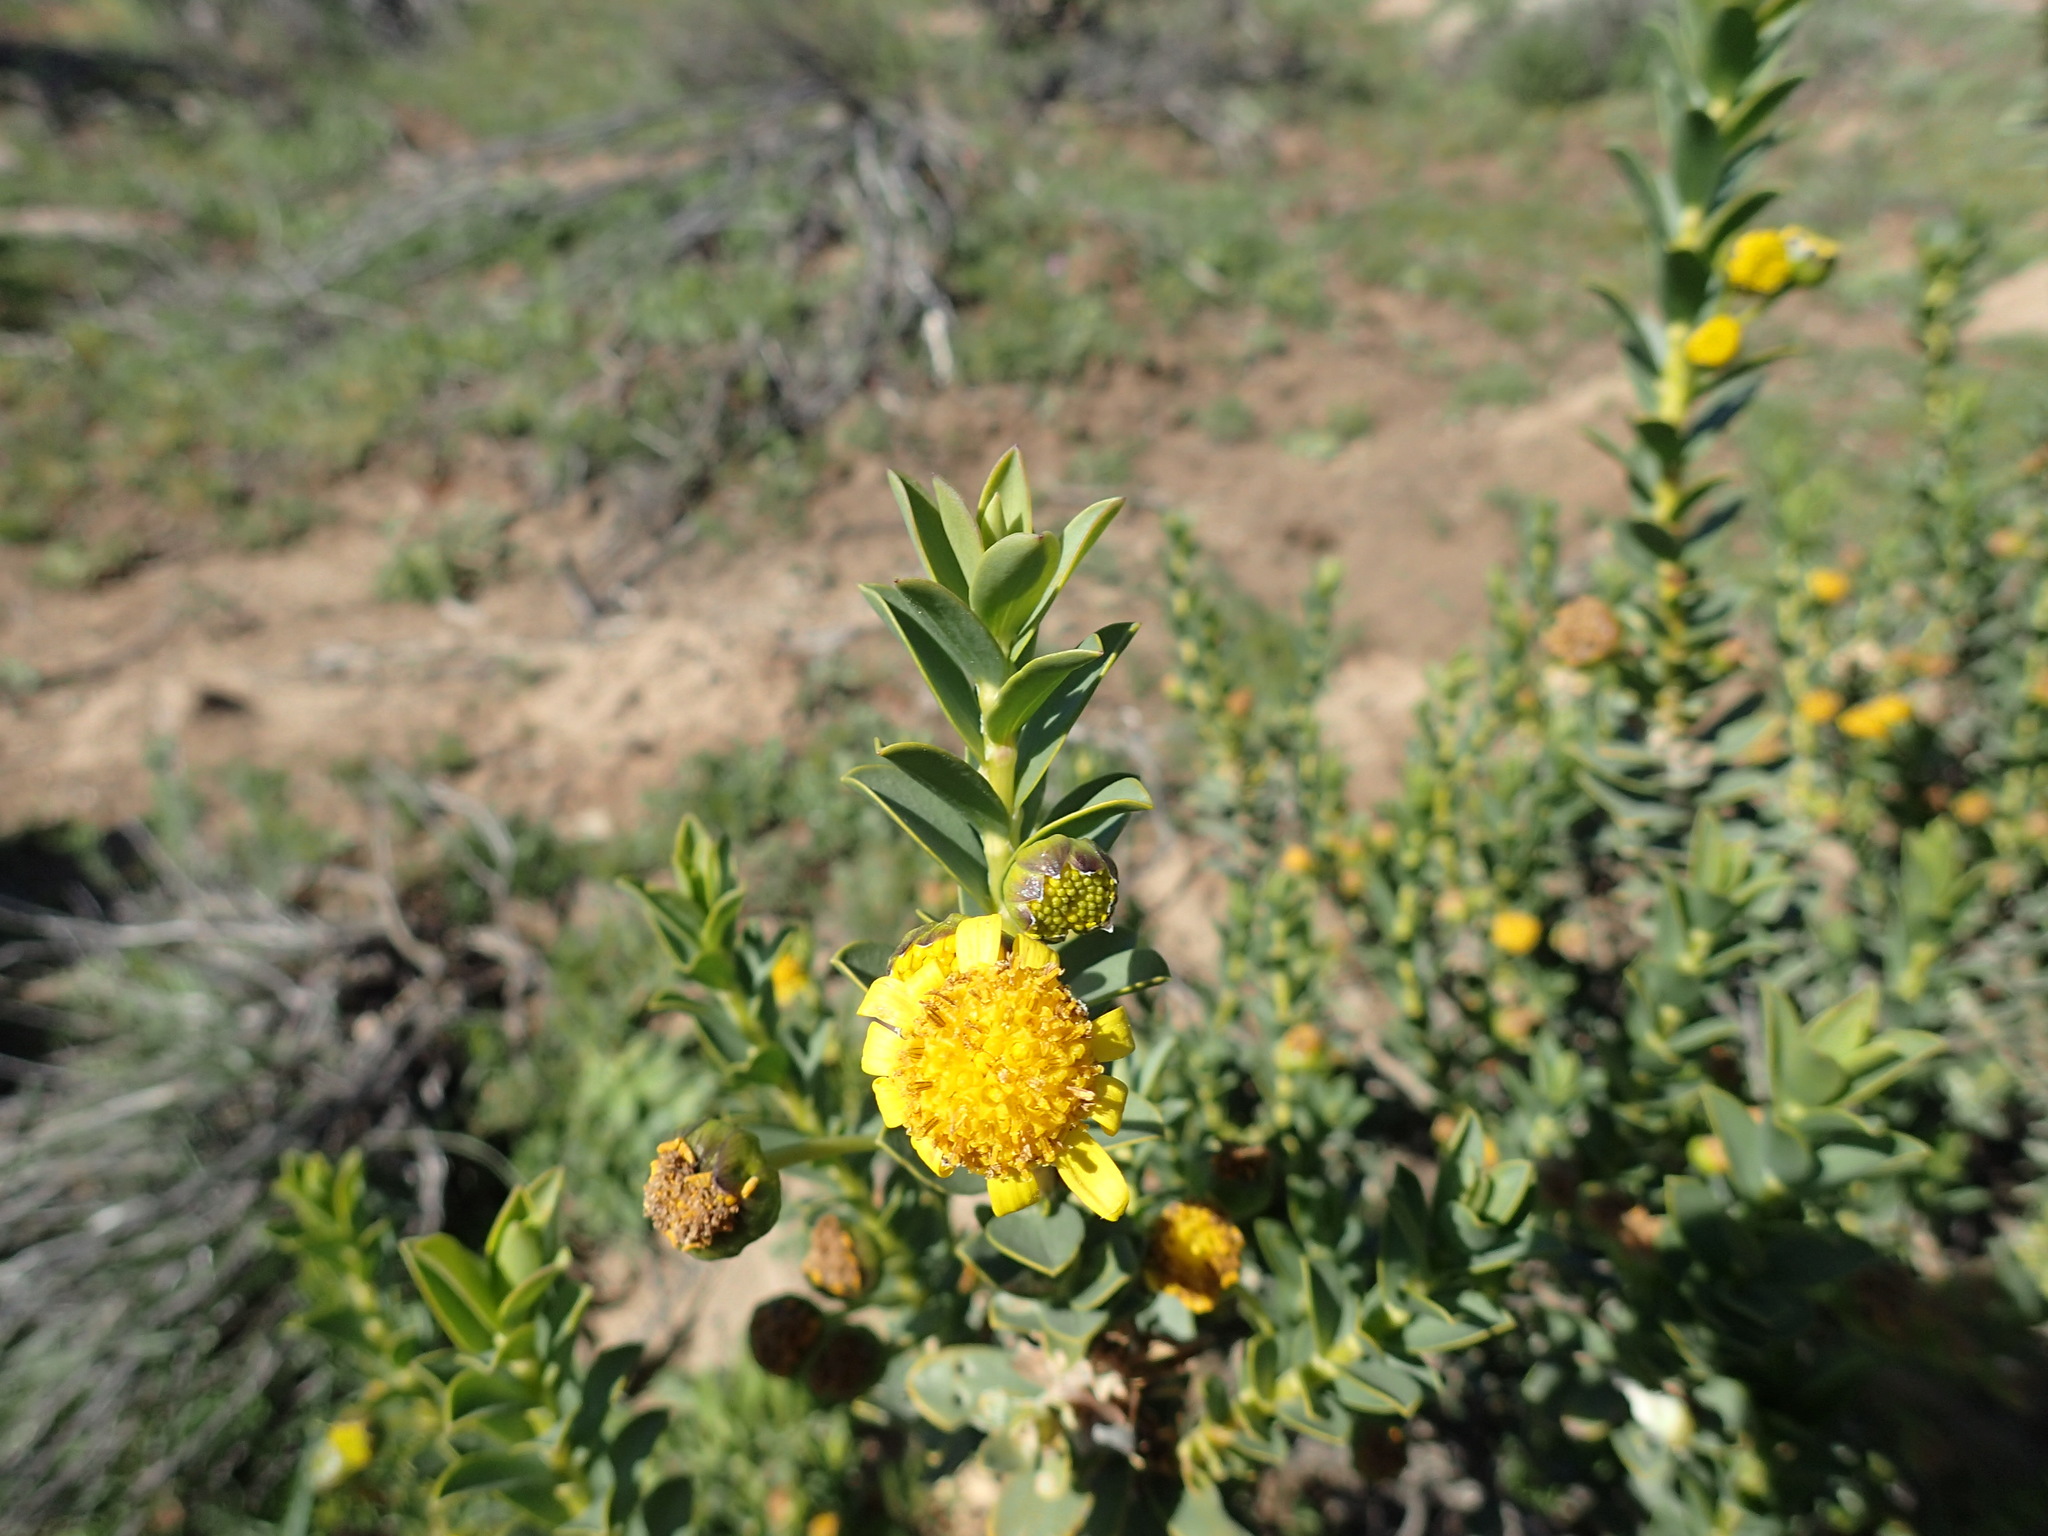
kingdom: Plantae
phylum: Tracheophyta
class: Magnoliopsida
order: Asterales
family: Asteraceae
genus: Euryops
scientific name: Euryops lateriflorus
